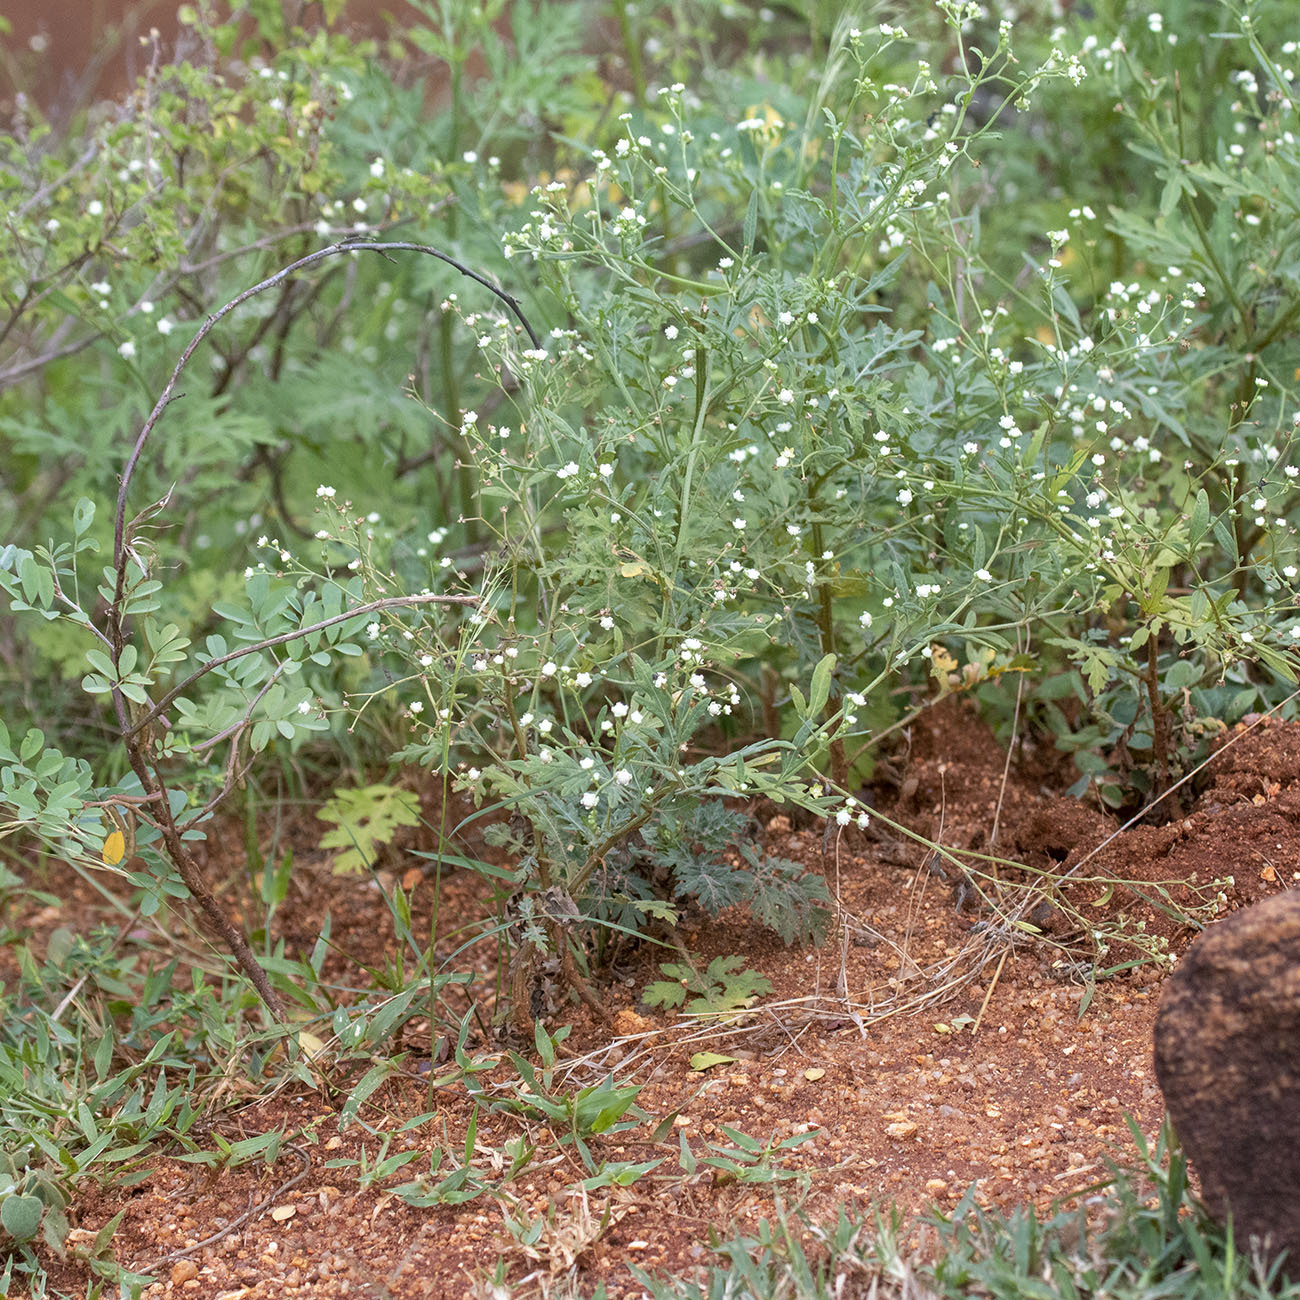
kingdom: Plantae
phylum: Tracheophyta
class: Magnoliopsida
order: Asterales
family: Asteraceae
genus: Parthenium
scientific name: Parthenium hysterophorus
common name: Santa maria feverfew
